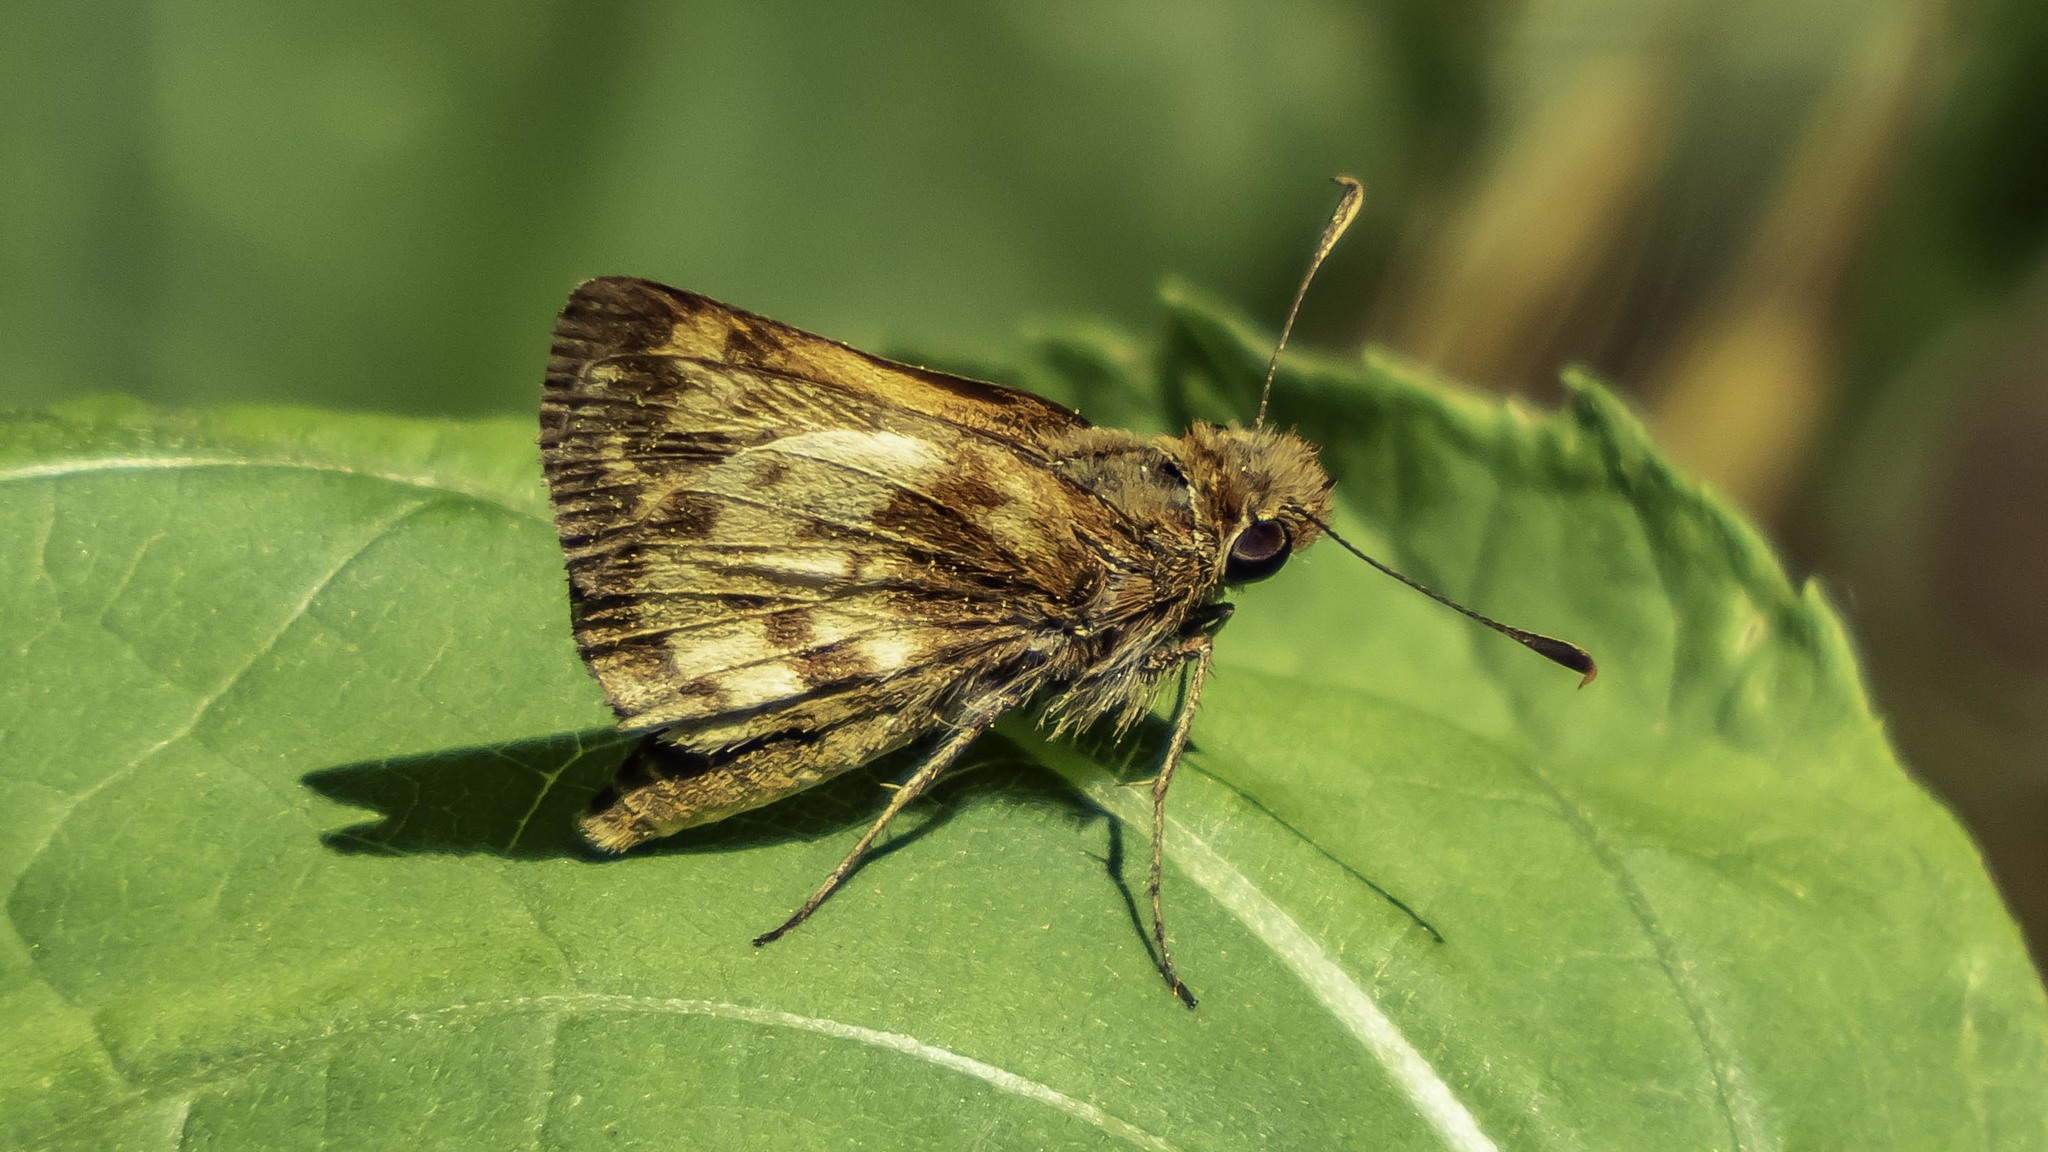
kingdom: Animalia
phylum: Arthropoda
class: Insecta
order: Lepidoptera
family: Hesperiidae
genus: Lon
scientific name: Lon zabulon
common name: Zabulon skipper
